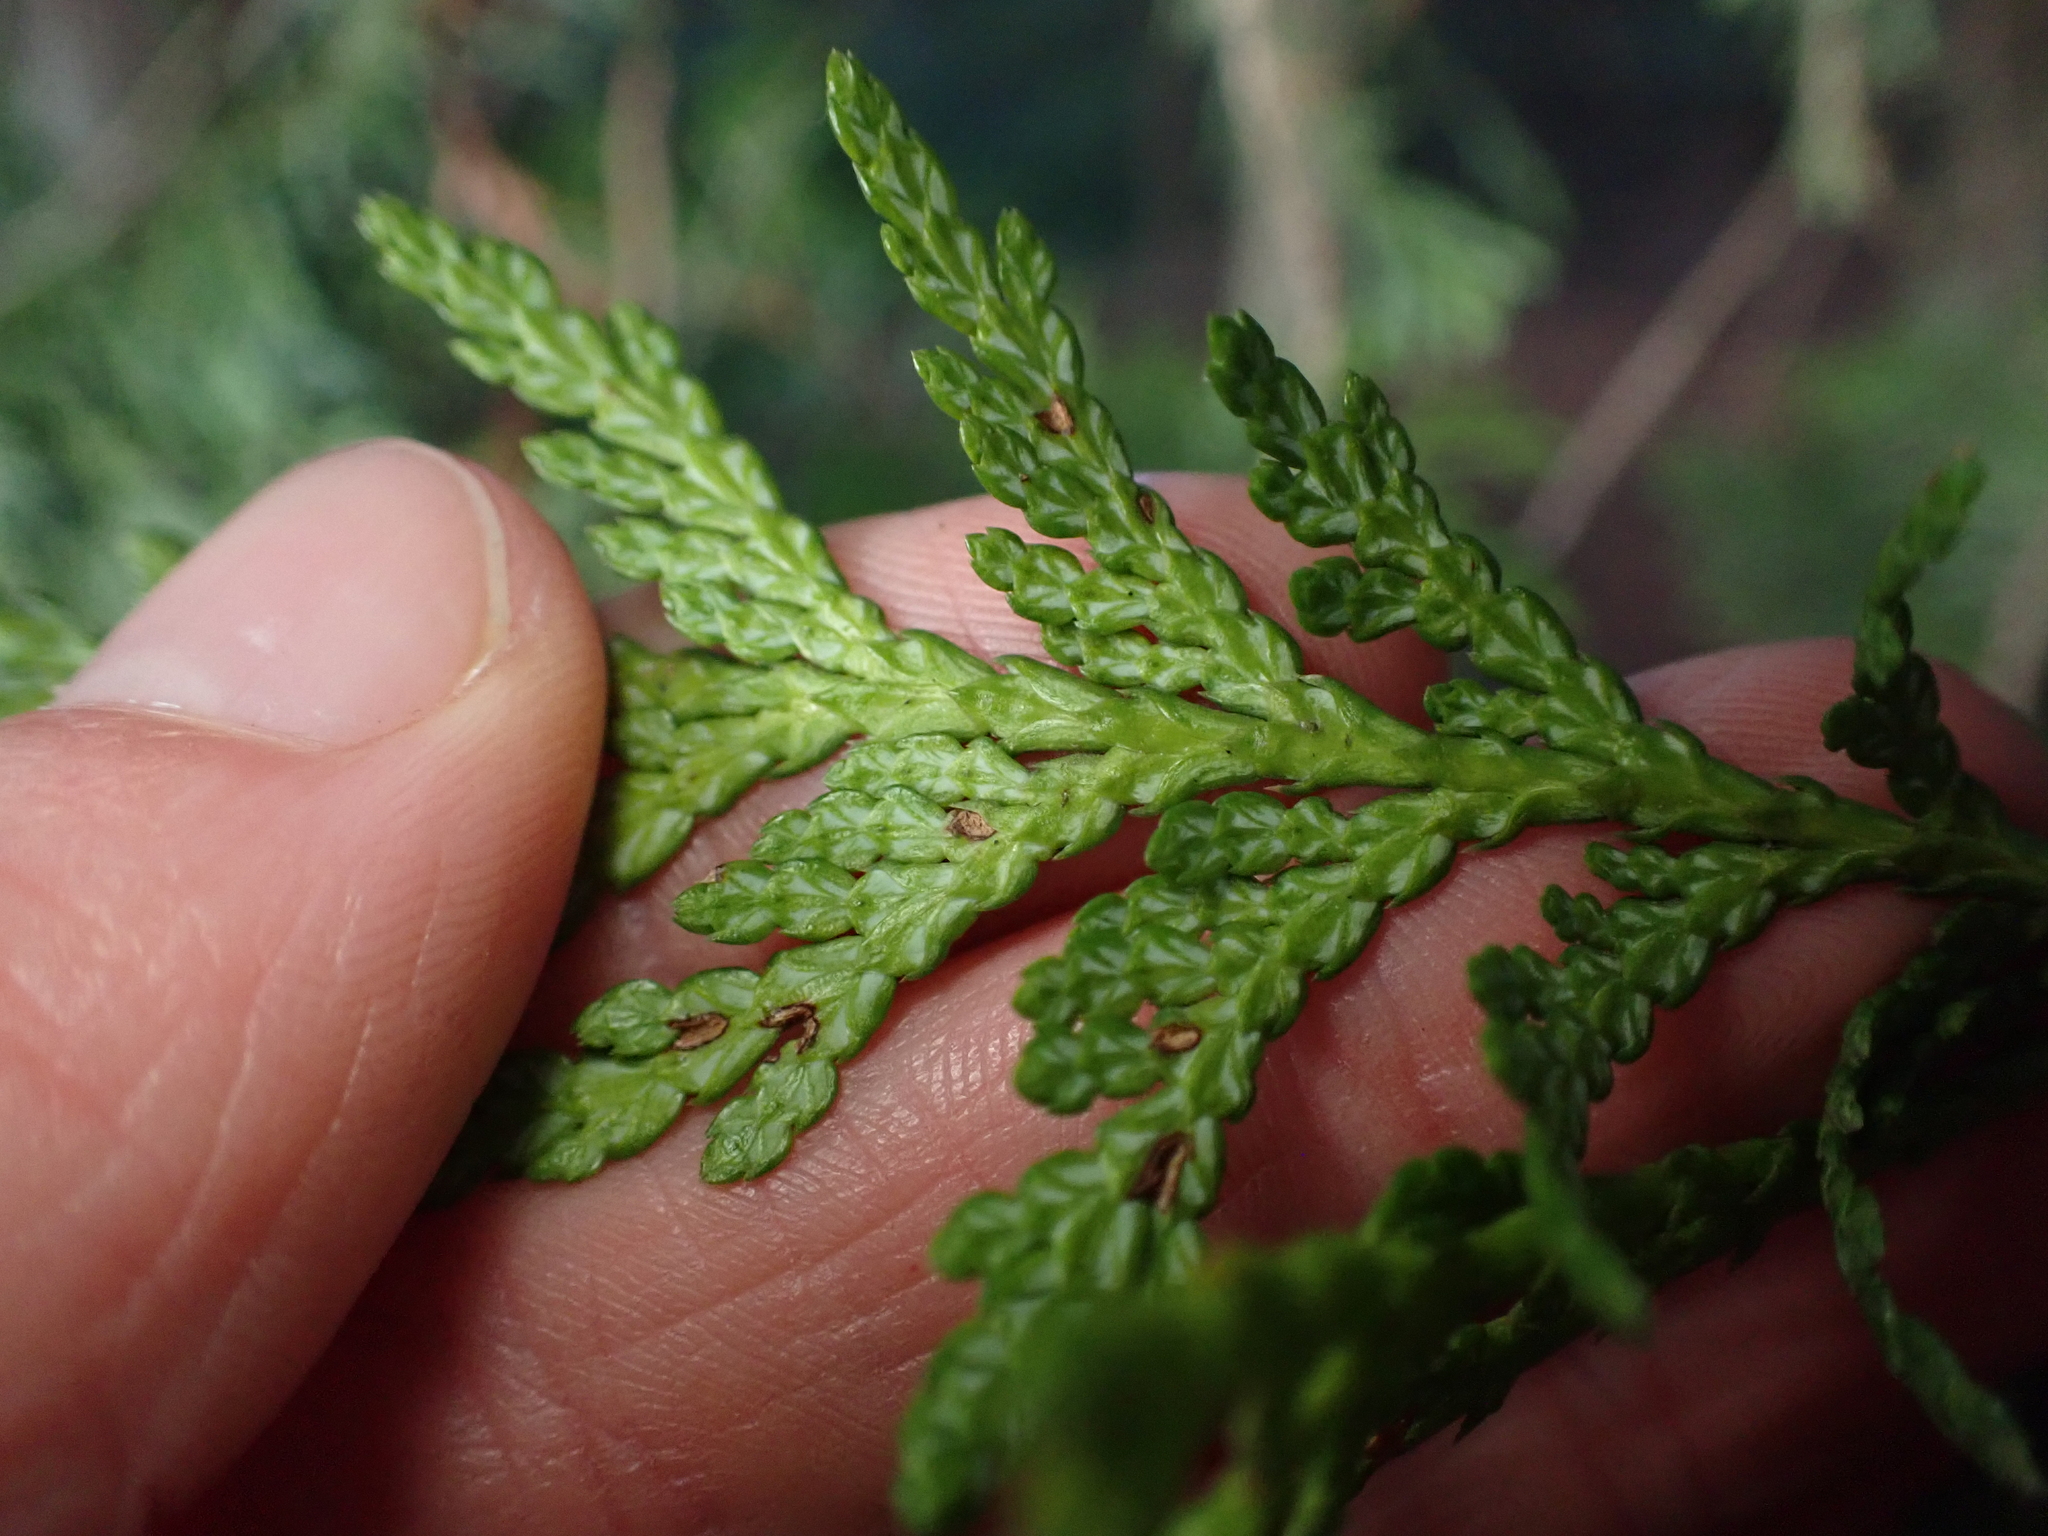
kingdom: Plantae
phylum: Tracheophyta
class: Pinopsida
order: Pinales
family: Cupressaceae
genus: Thuja
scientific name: Thuja plicata
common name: Western red-cedar
